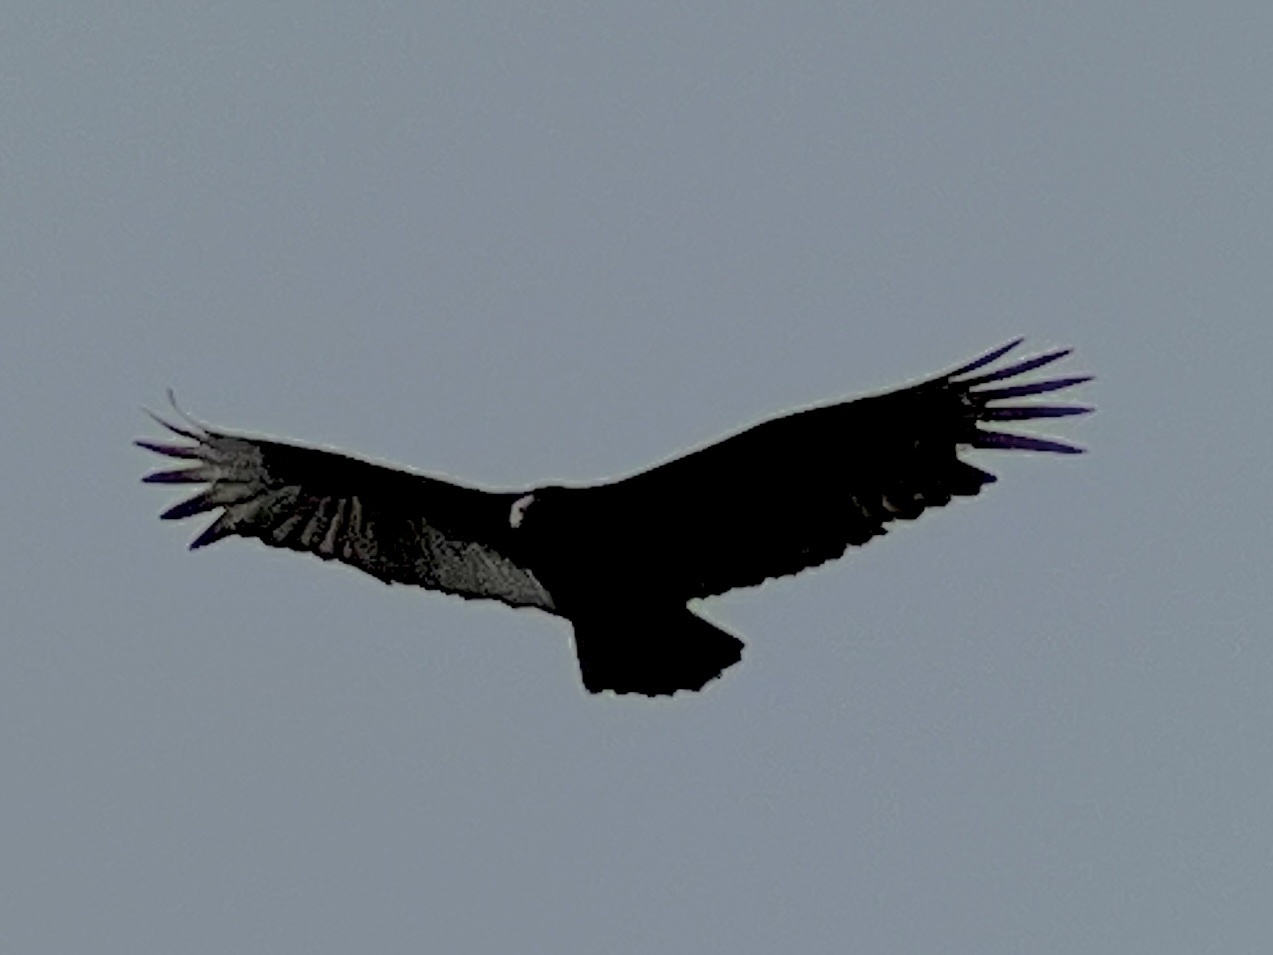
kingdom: Animalia
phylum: Chordata
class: Aves
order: Accipitriformes
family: Cathartidae
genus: Cathartes
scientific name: Cathartes aura
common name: Turkey vulture
